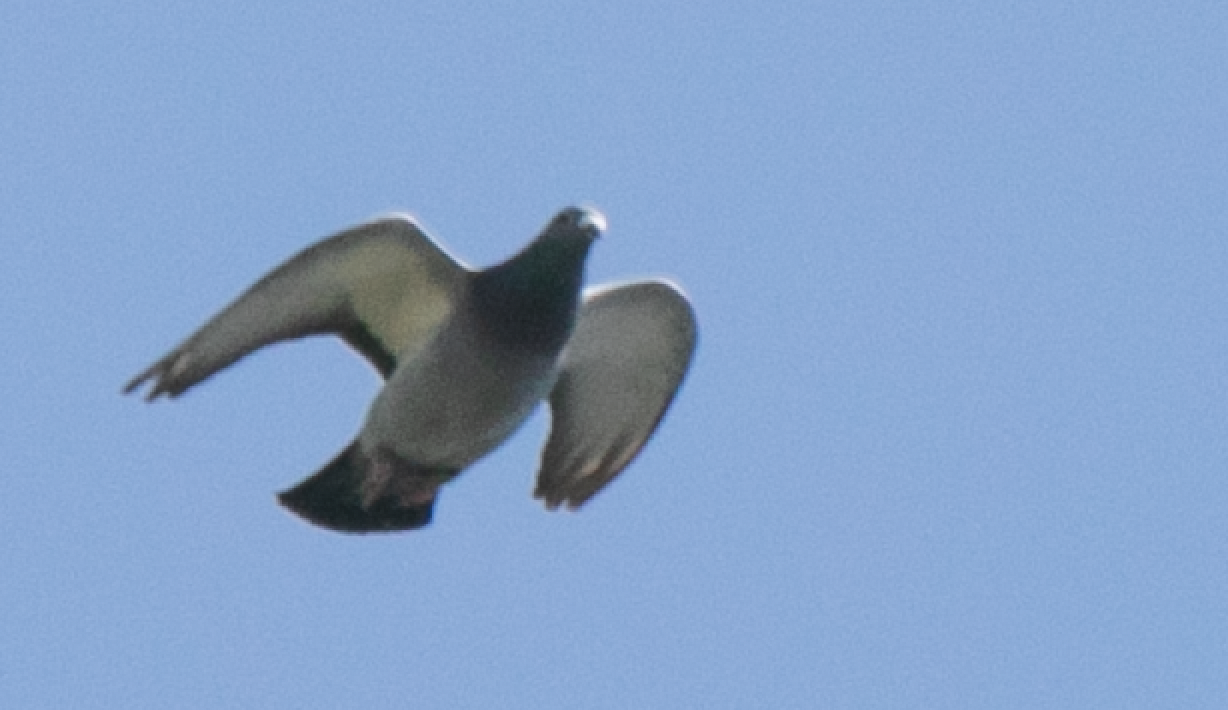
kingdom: Animalia
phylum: Chordata
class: Aves
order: Columbiformes
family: Columbidae
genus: Columba
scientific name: Columba livia
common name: Rock pigeon
